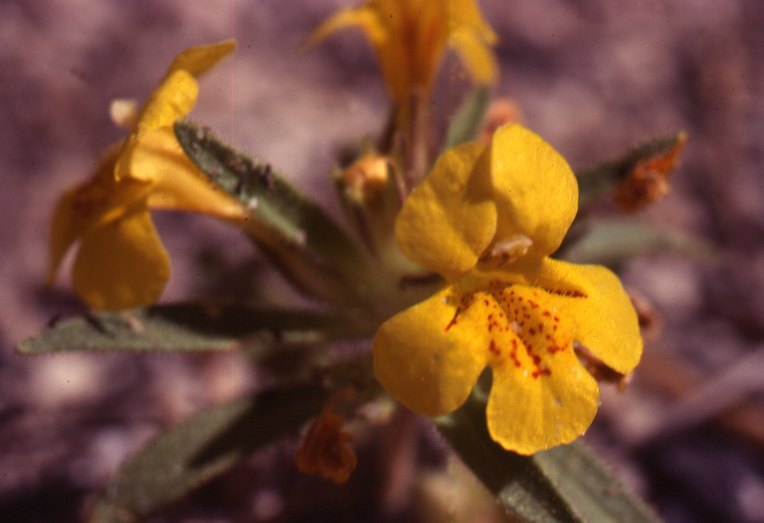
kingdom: Plantae
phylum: Tracheophyta
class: Magnoliopsida
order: Lamiales
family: Phrymaceae
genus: Erythranthe
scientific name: Erythranthe caespitosa
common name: Subalpine monkeyflower
